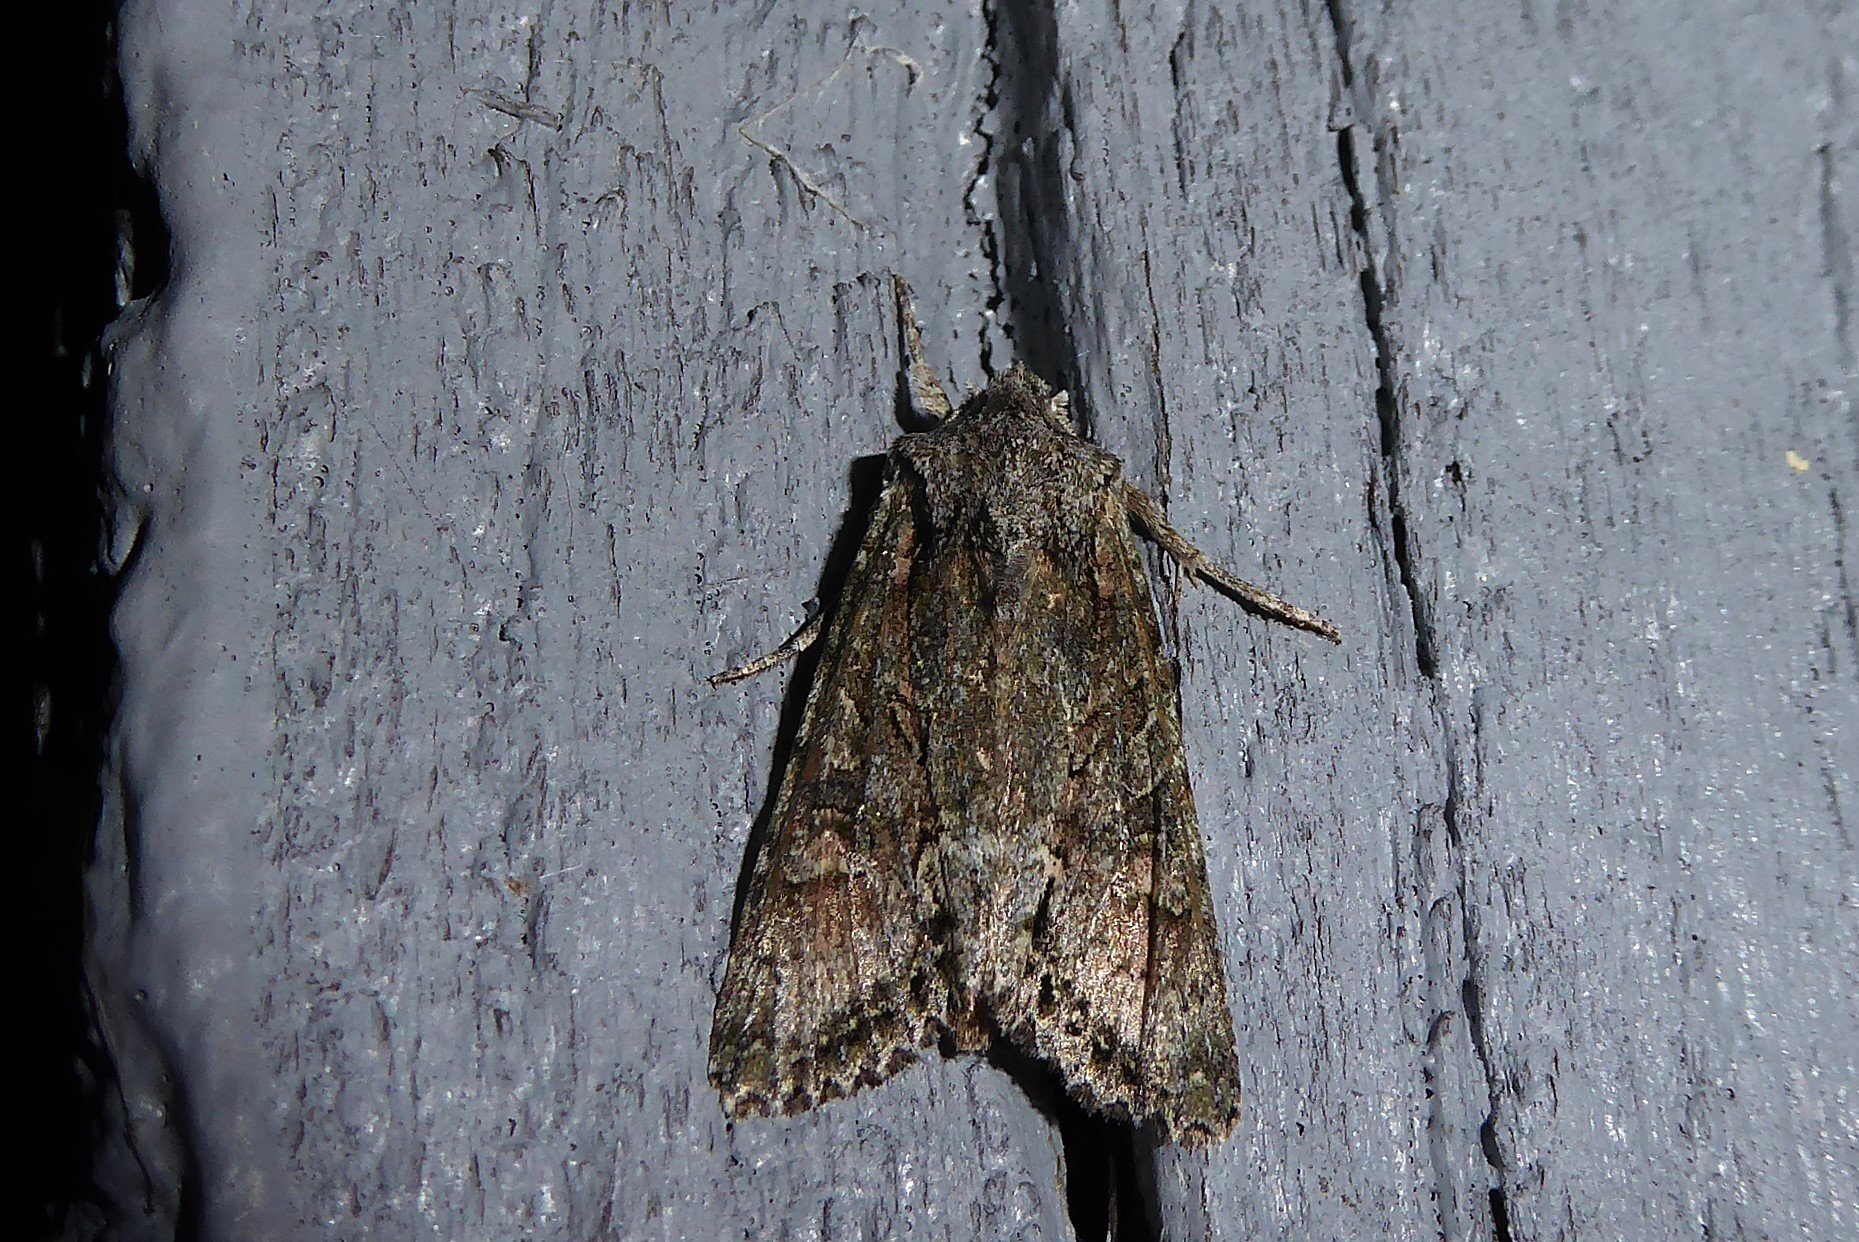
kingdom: Animalia
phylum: Arthropoda
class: Insecta
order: Lepidoptera
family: Noctuidae
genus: Ichneutica
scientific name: Ichneutica mutans
